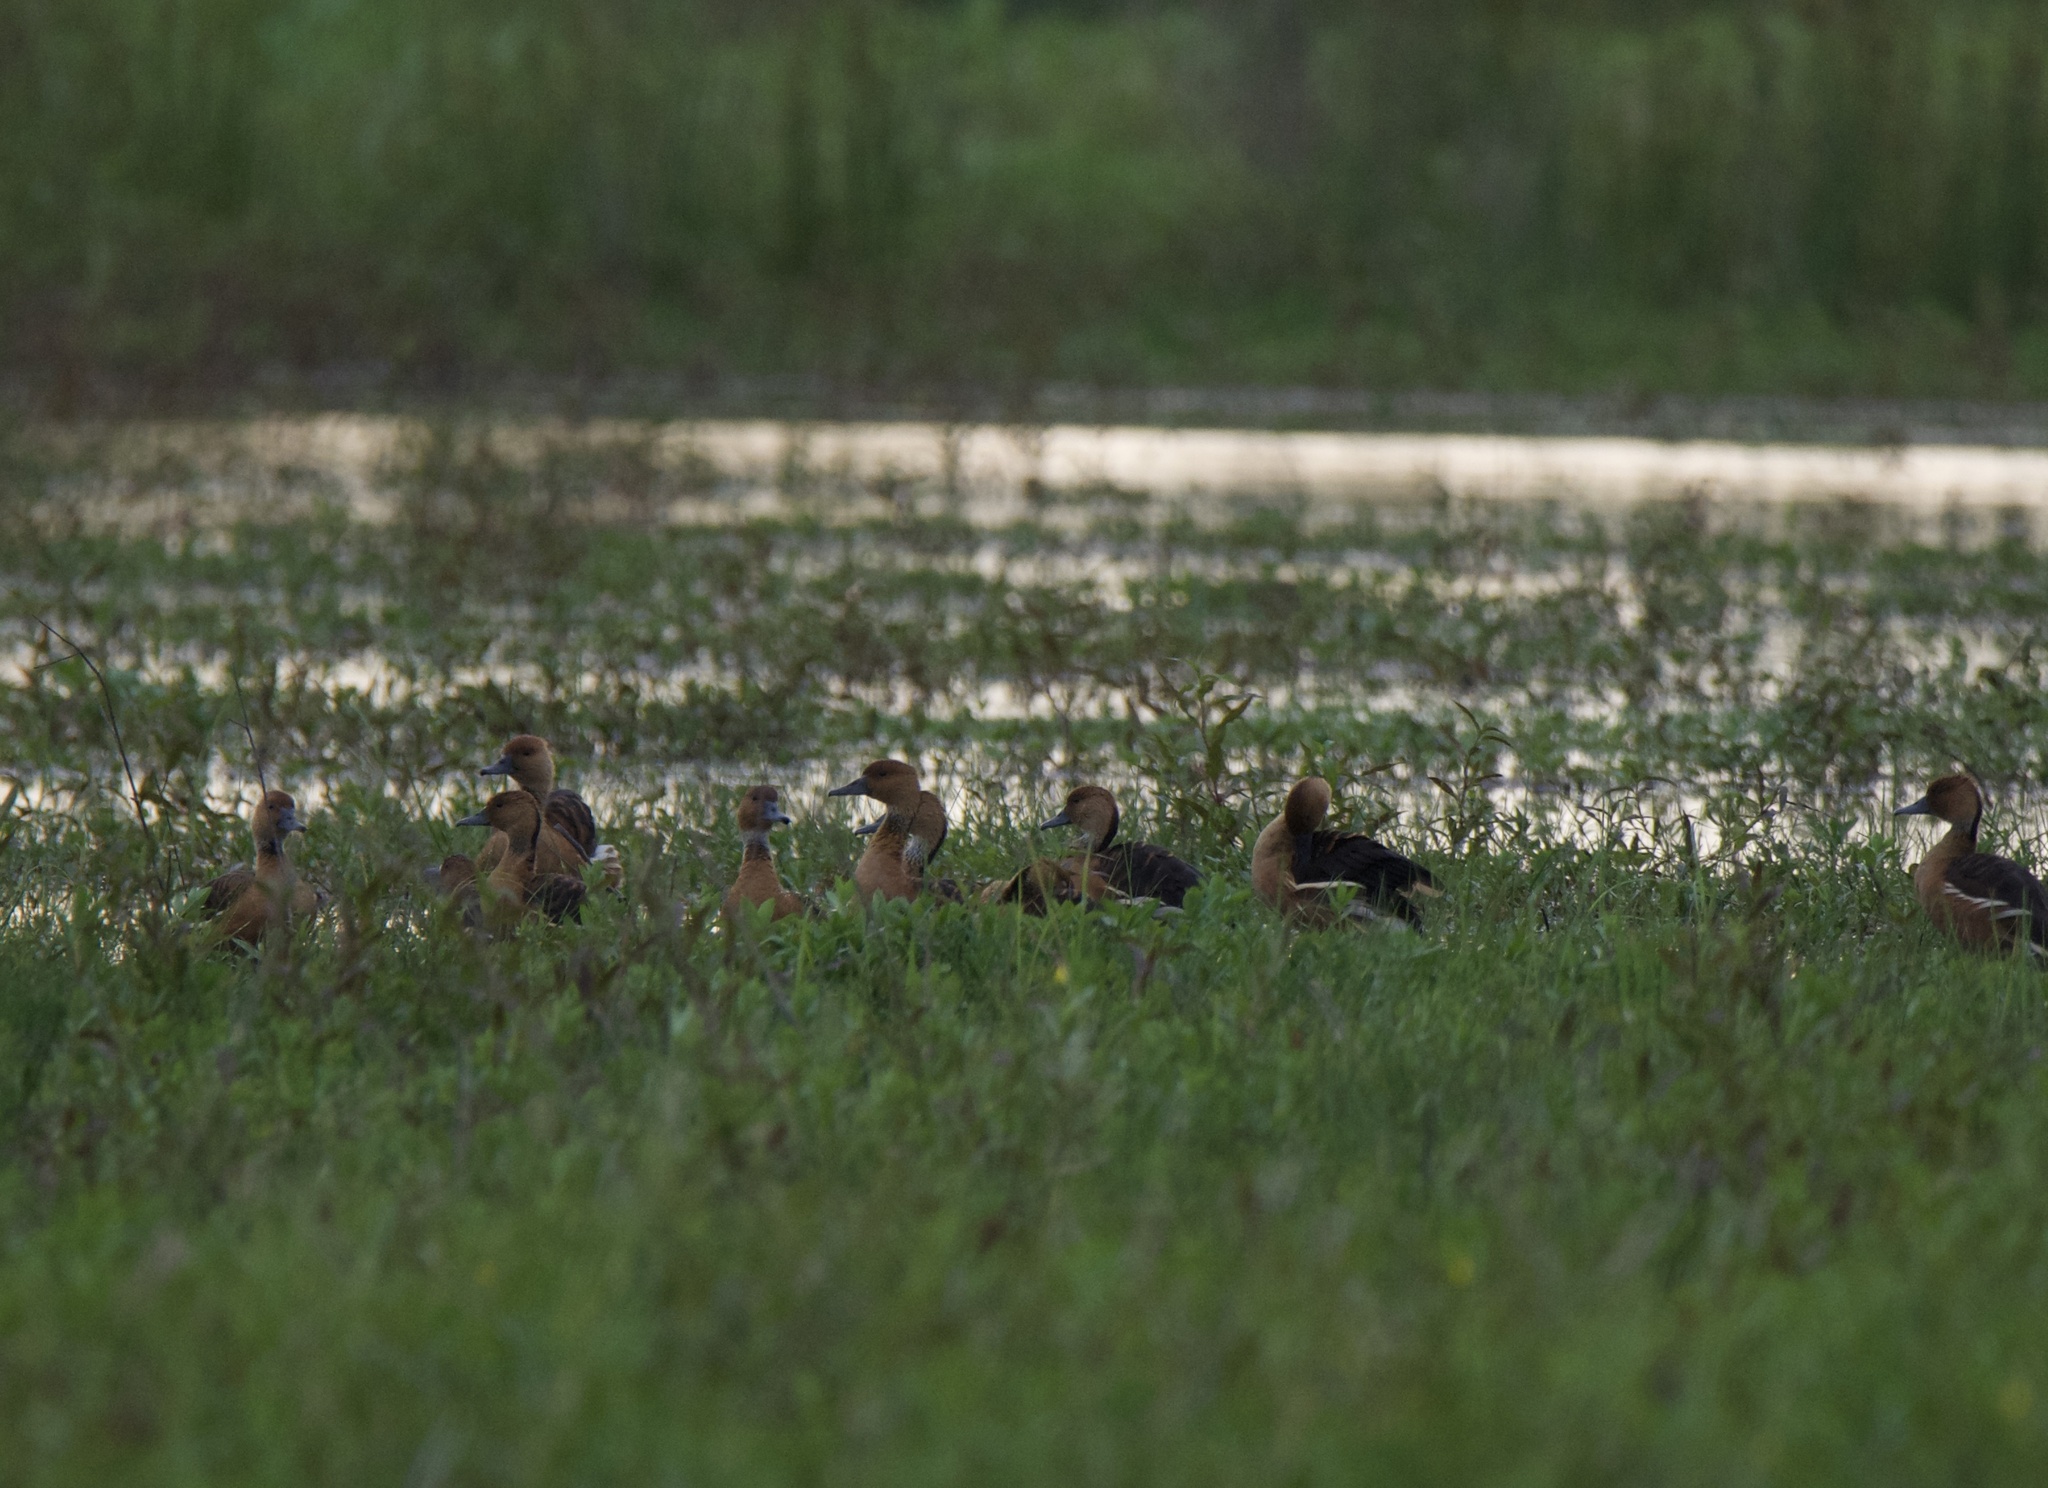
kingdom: Animalia
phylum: Chordata
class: Aves
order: Anseriformes
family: Anatidae
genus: Dendrocygna
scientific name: Dendrocygna bicolor
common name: Fulvous whistling duck
